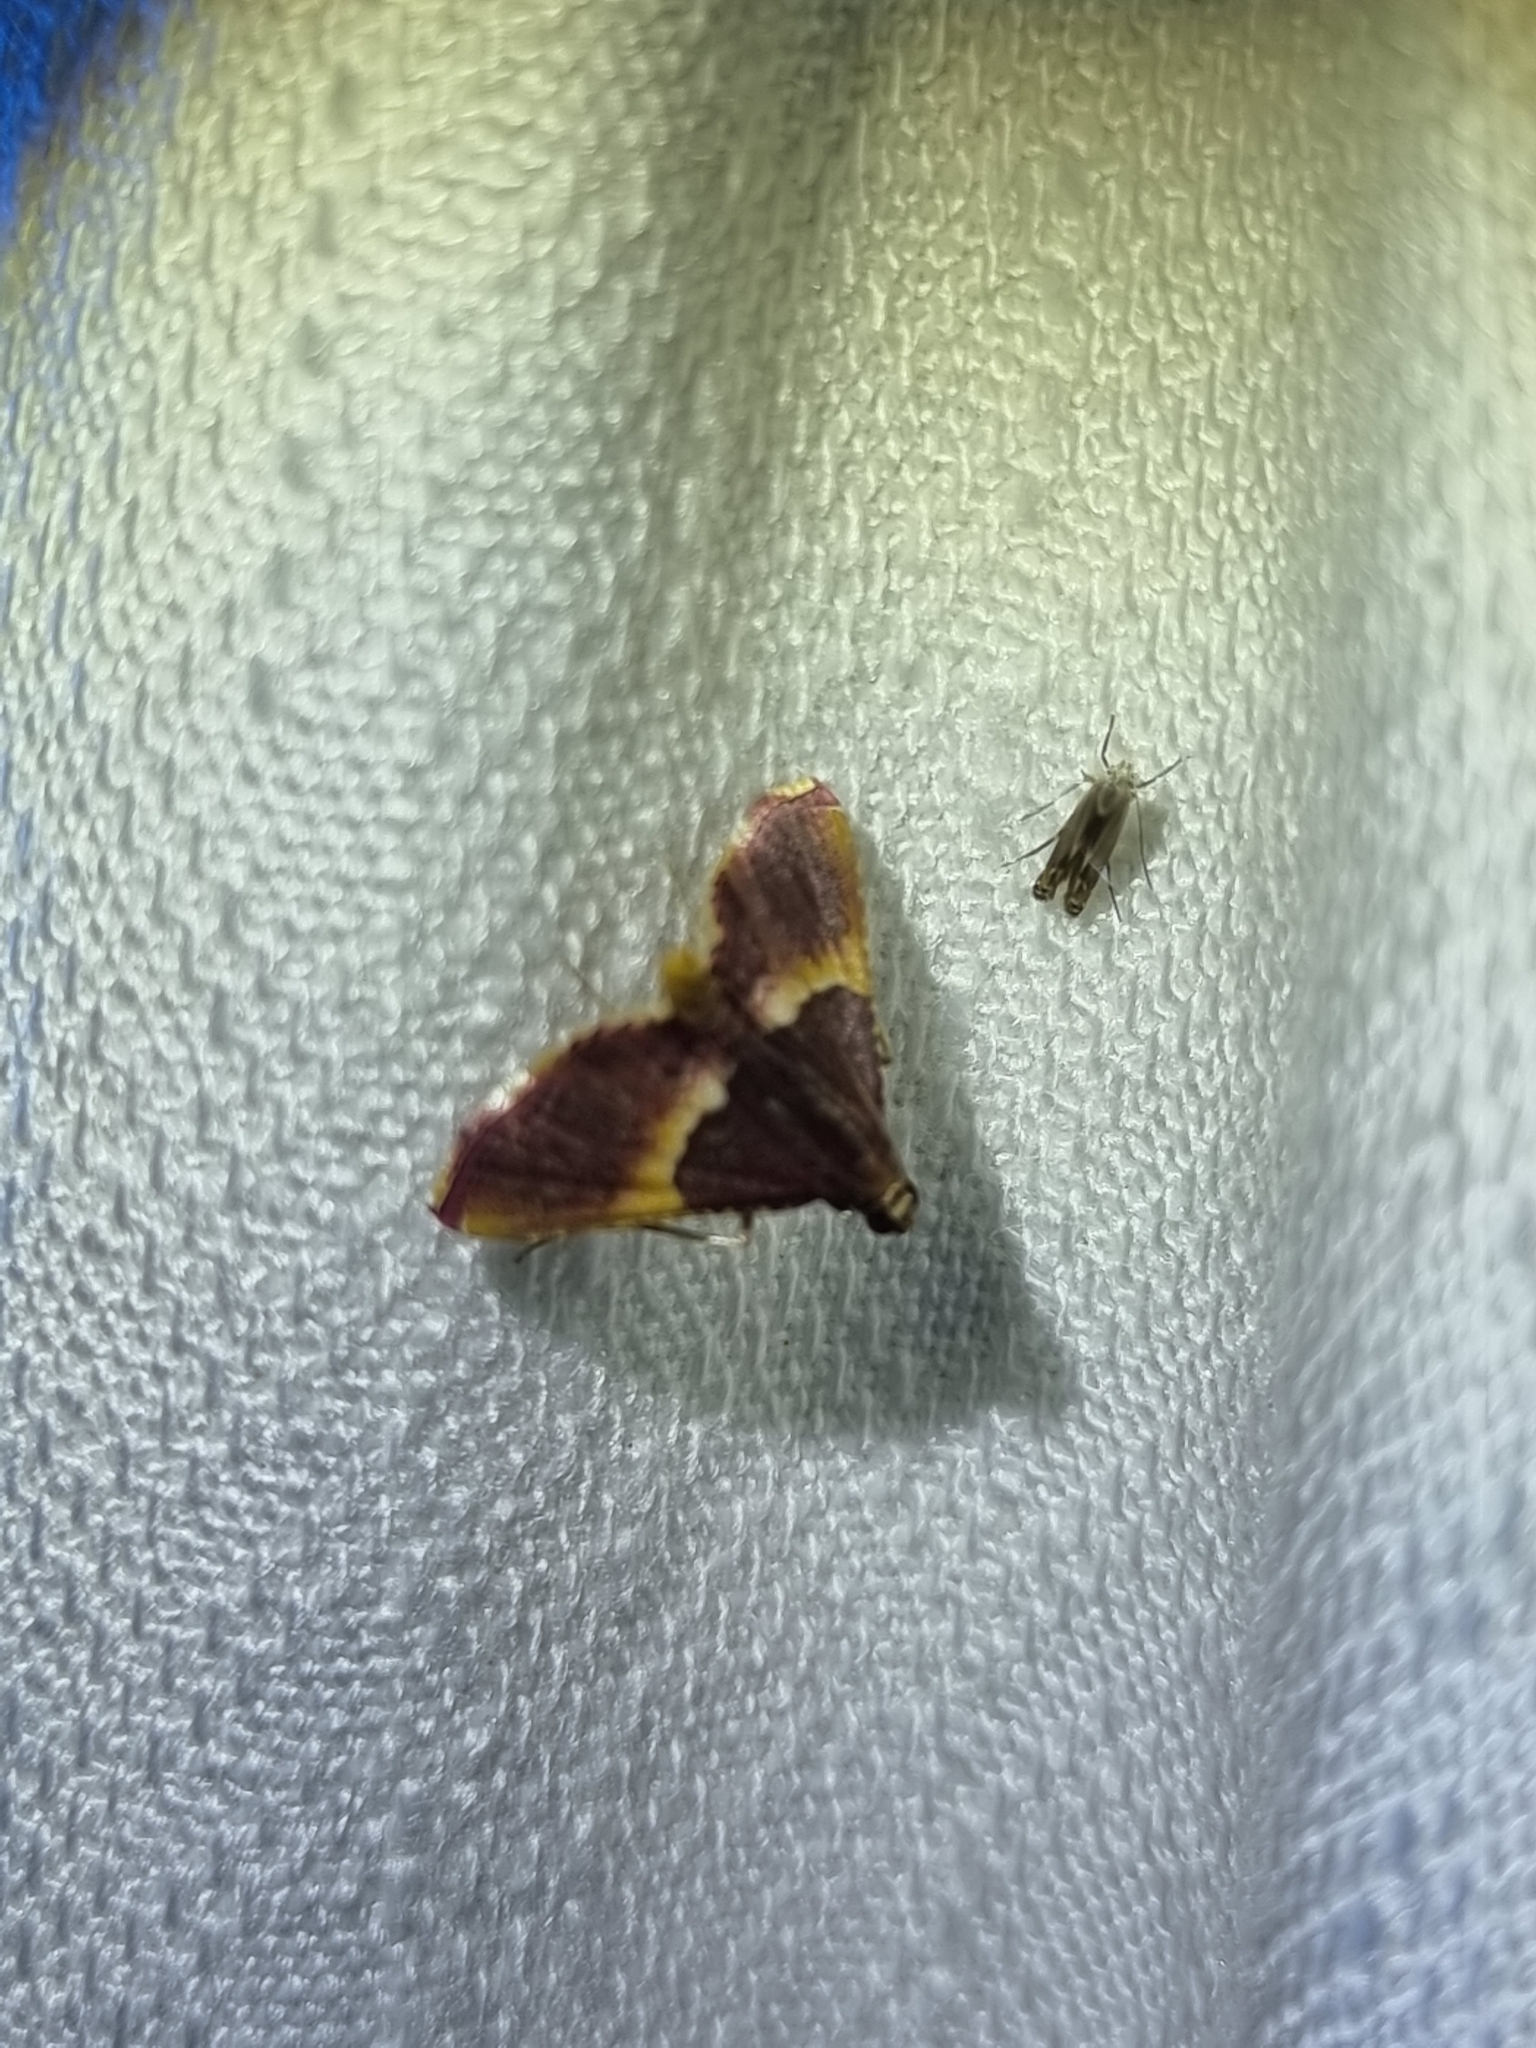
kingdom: Animalia
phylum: Arthropoda
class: Insecta
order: Lepidoptera
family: Pyralidae
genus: Endotricha
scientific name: Endotricha mesenterialis
